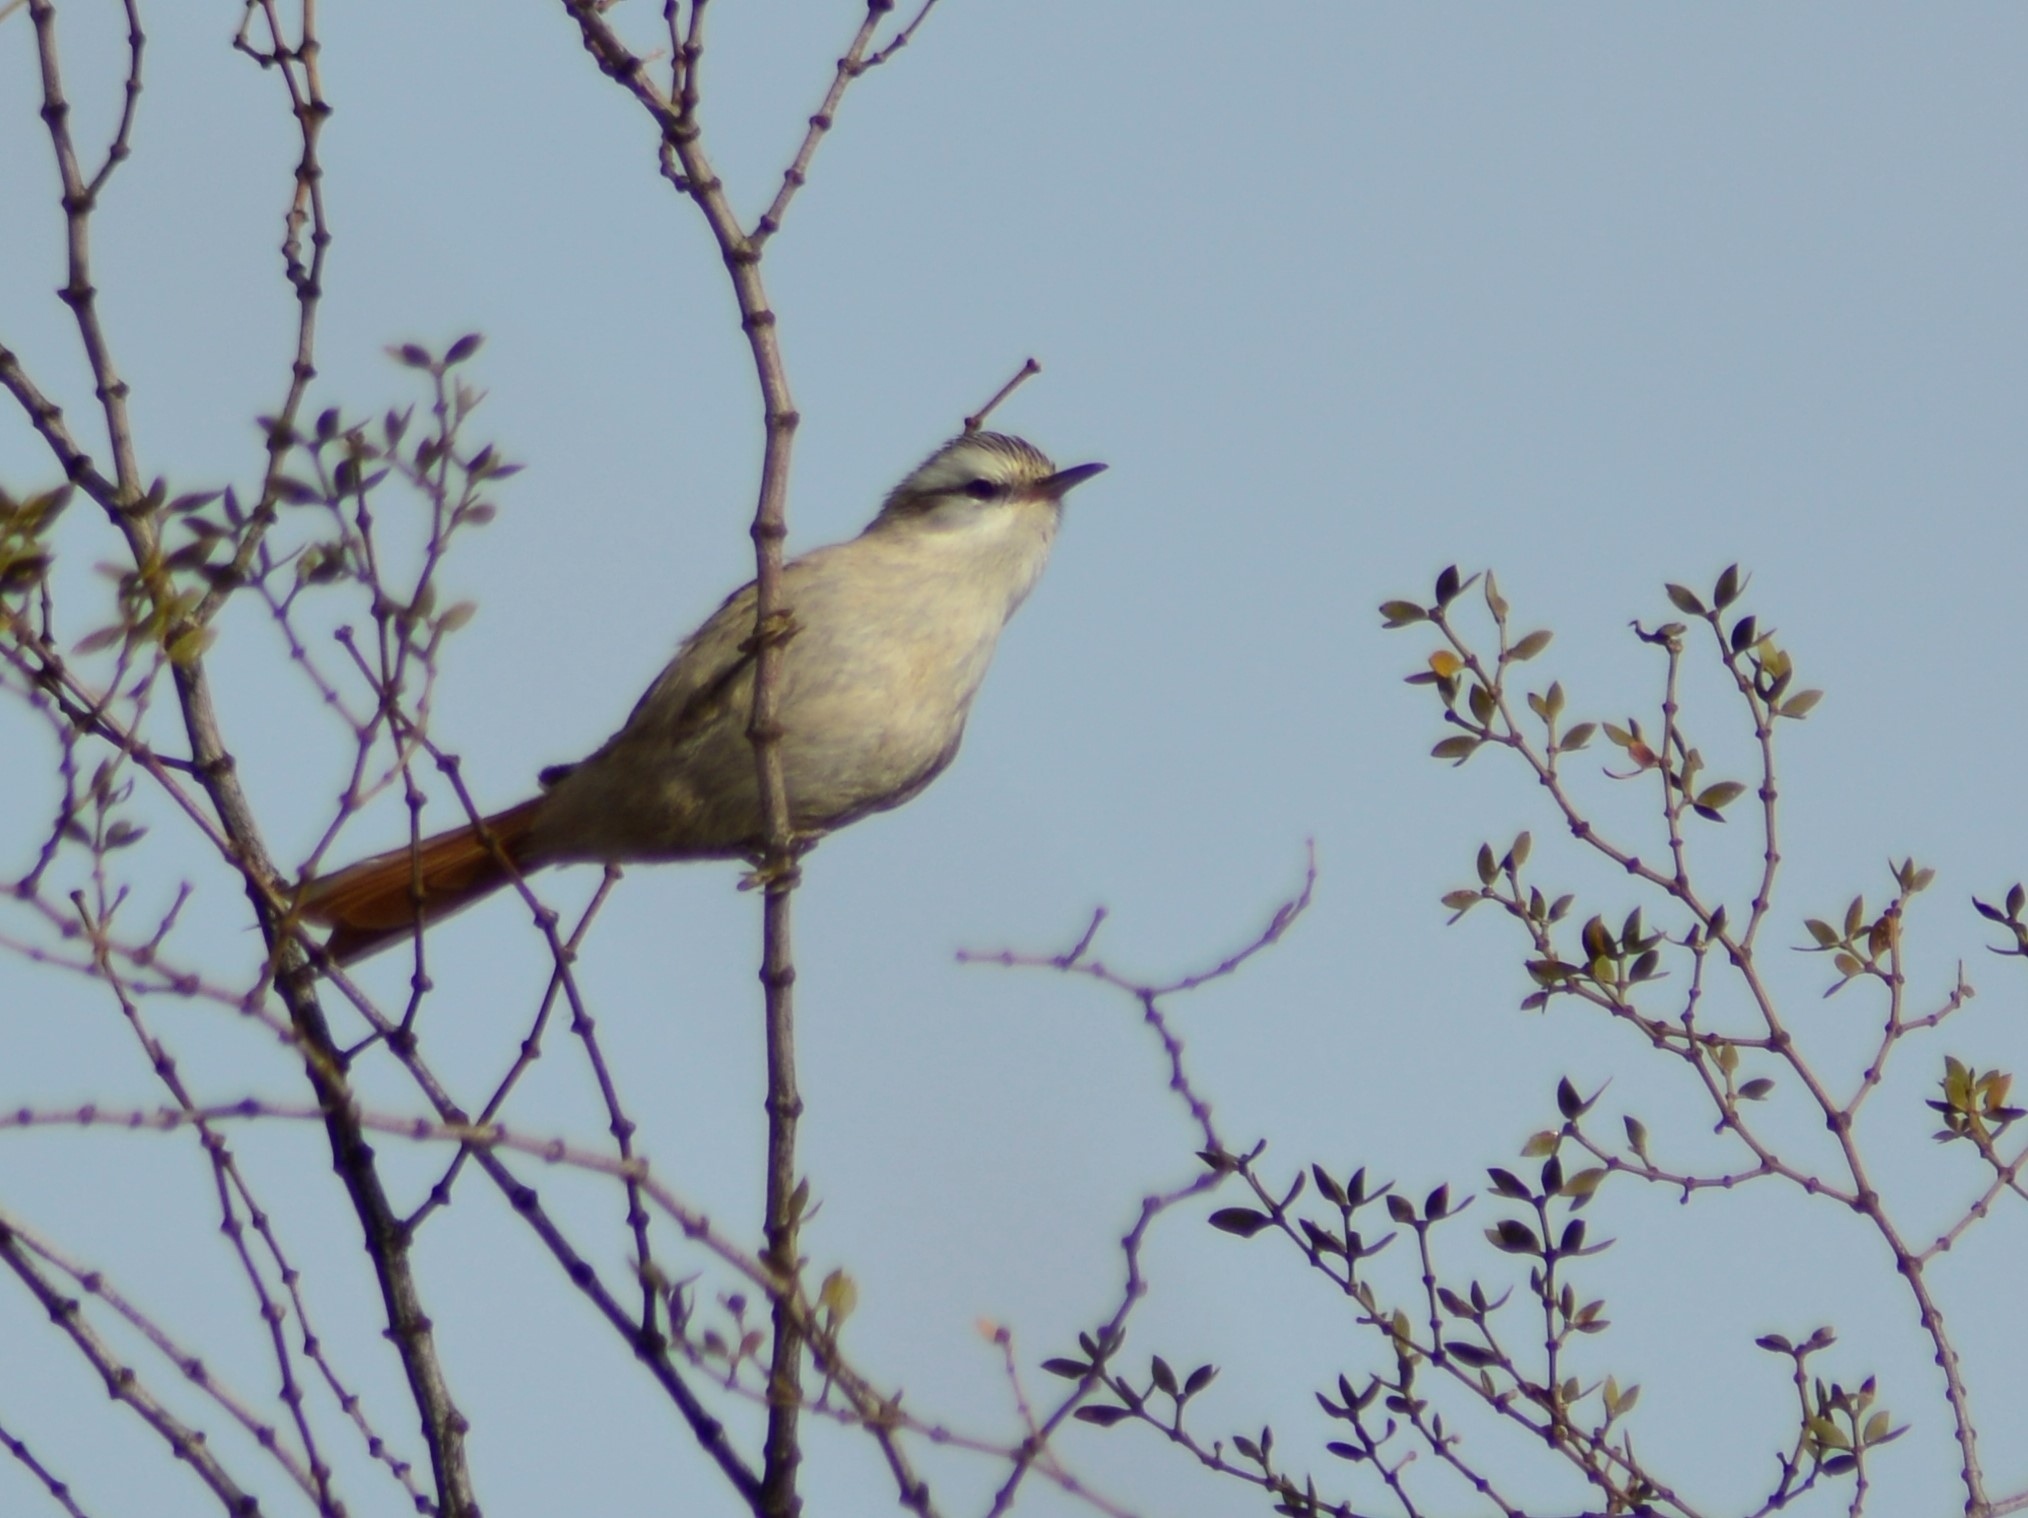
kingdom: Animalia
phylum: Chordata
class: Aves
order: Passeriformes
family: Furnariidae
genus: Cranioleuca
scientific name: Cranioleuca pyrrhophia
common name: Stripe-crowned spinetail
